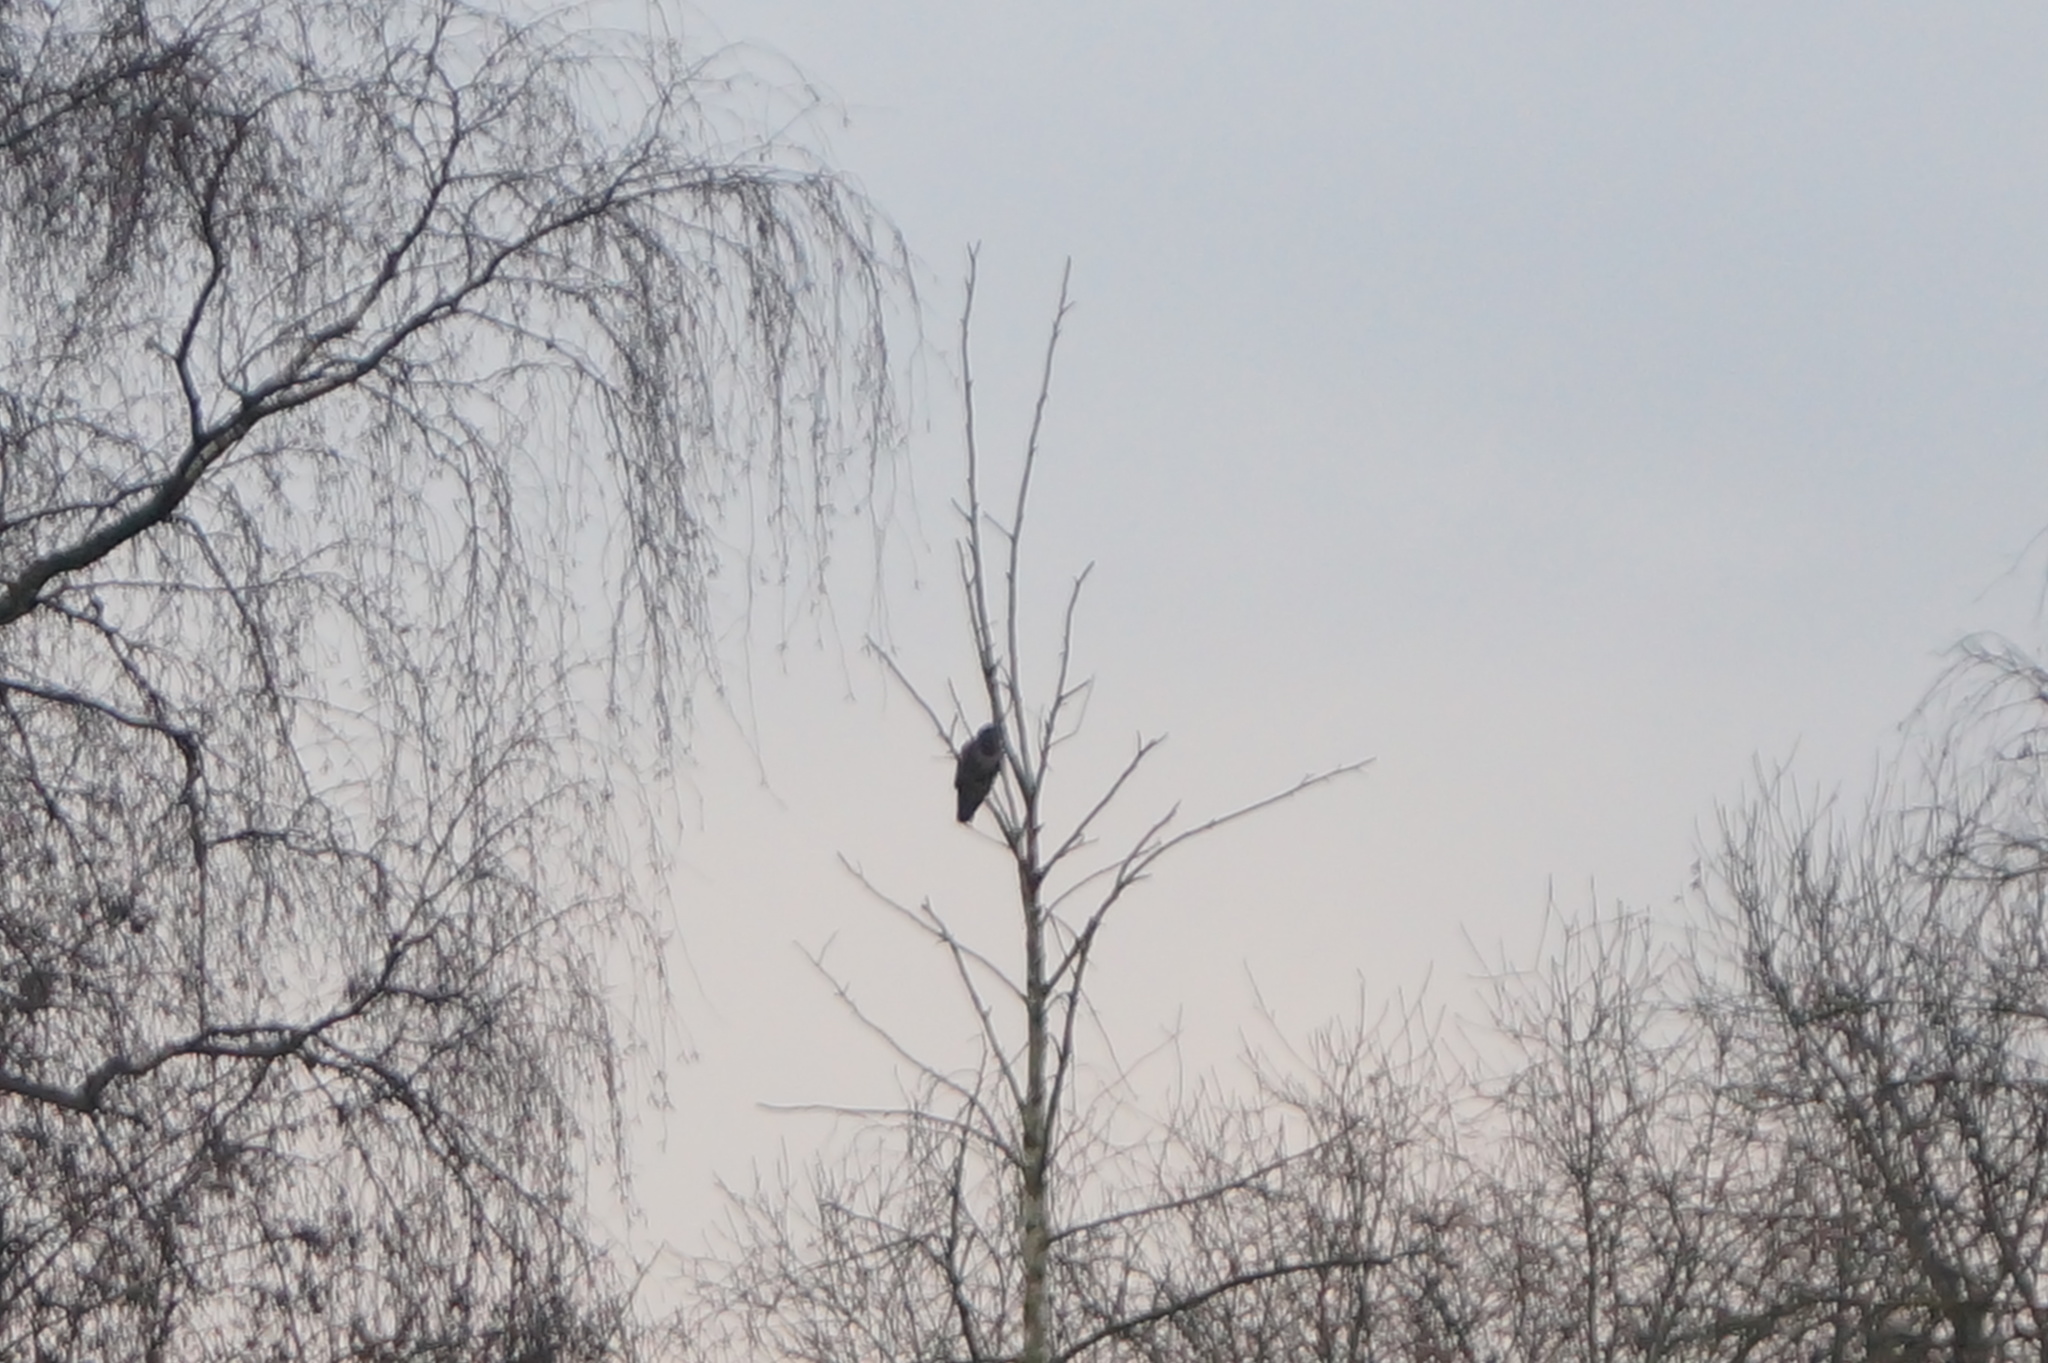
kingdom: Animalia
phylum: Chordata
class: Aves
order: Accipitriformes
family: Accipitridae
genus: Buteo
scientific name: Buteo buteo
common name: Common buzzard
